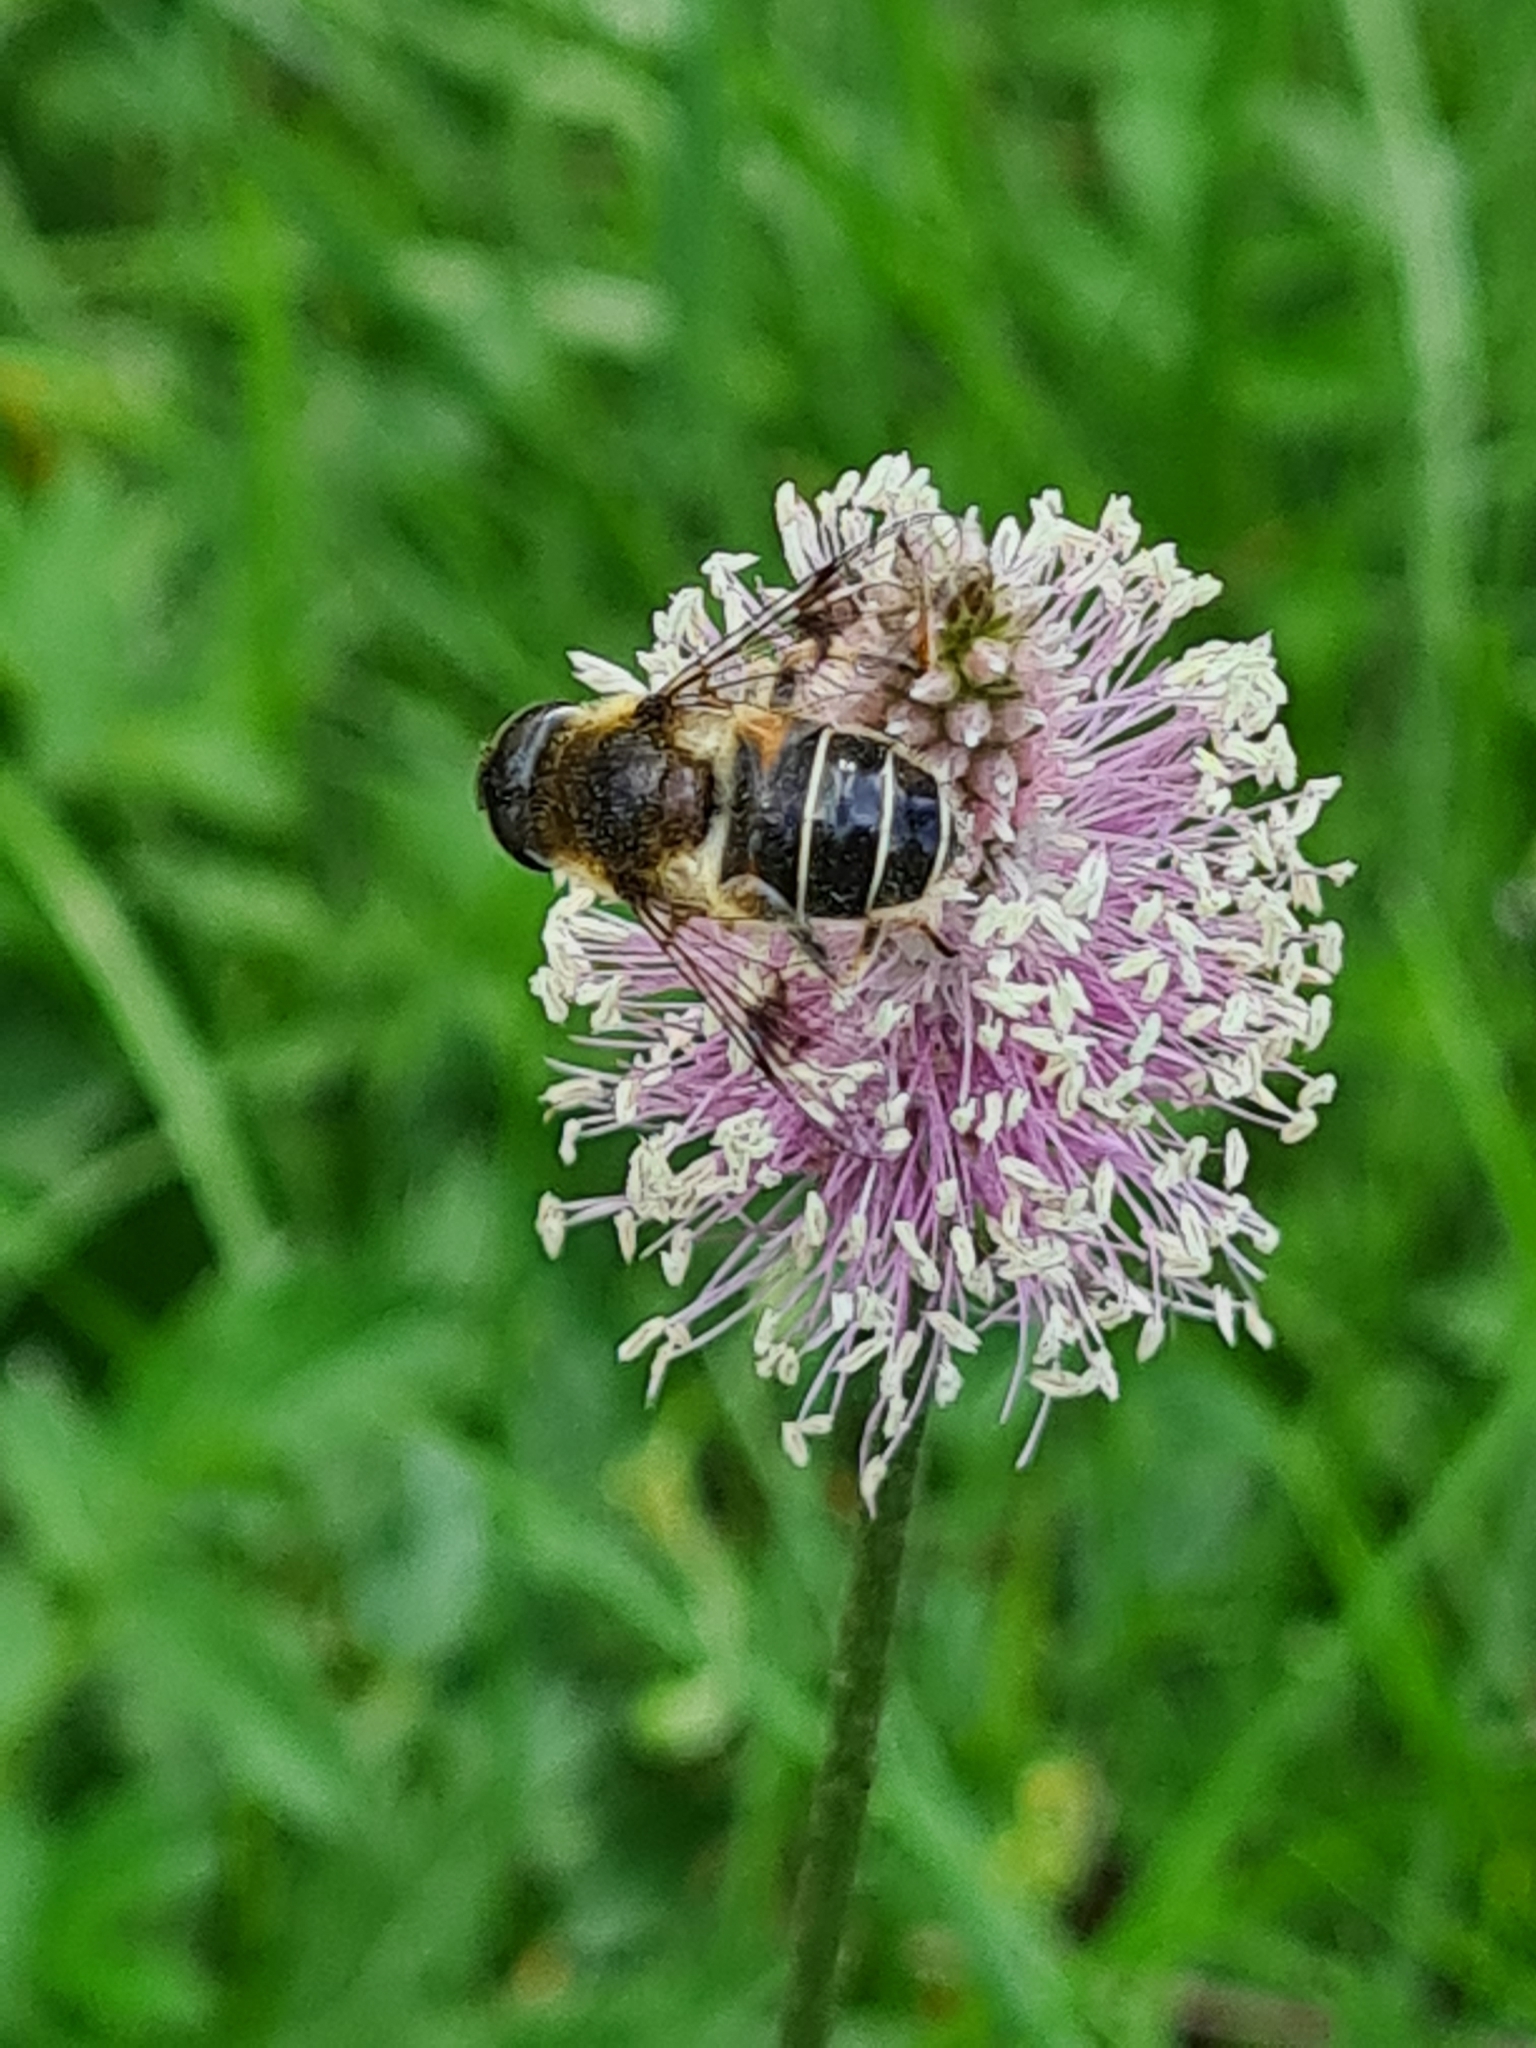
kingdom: Animalia
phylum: Arthropoda
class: Insecta
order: Diptera
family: Syrphidae
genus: Eristalis
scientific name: Eristalis rupium
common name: Hover fly
